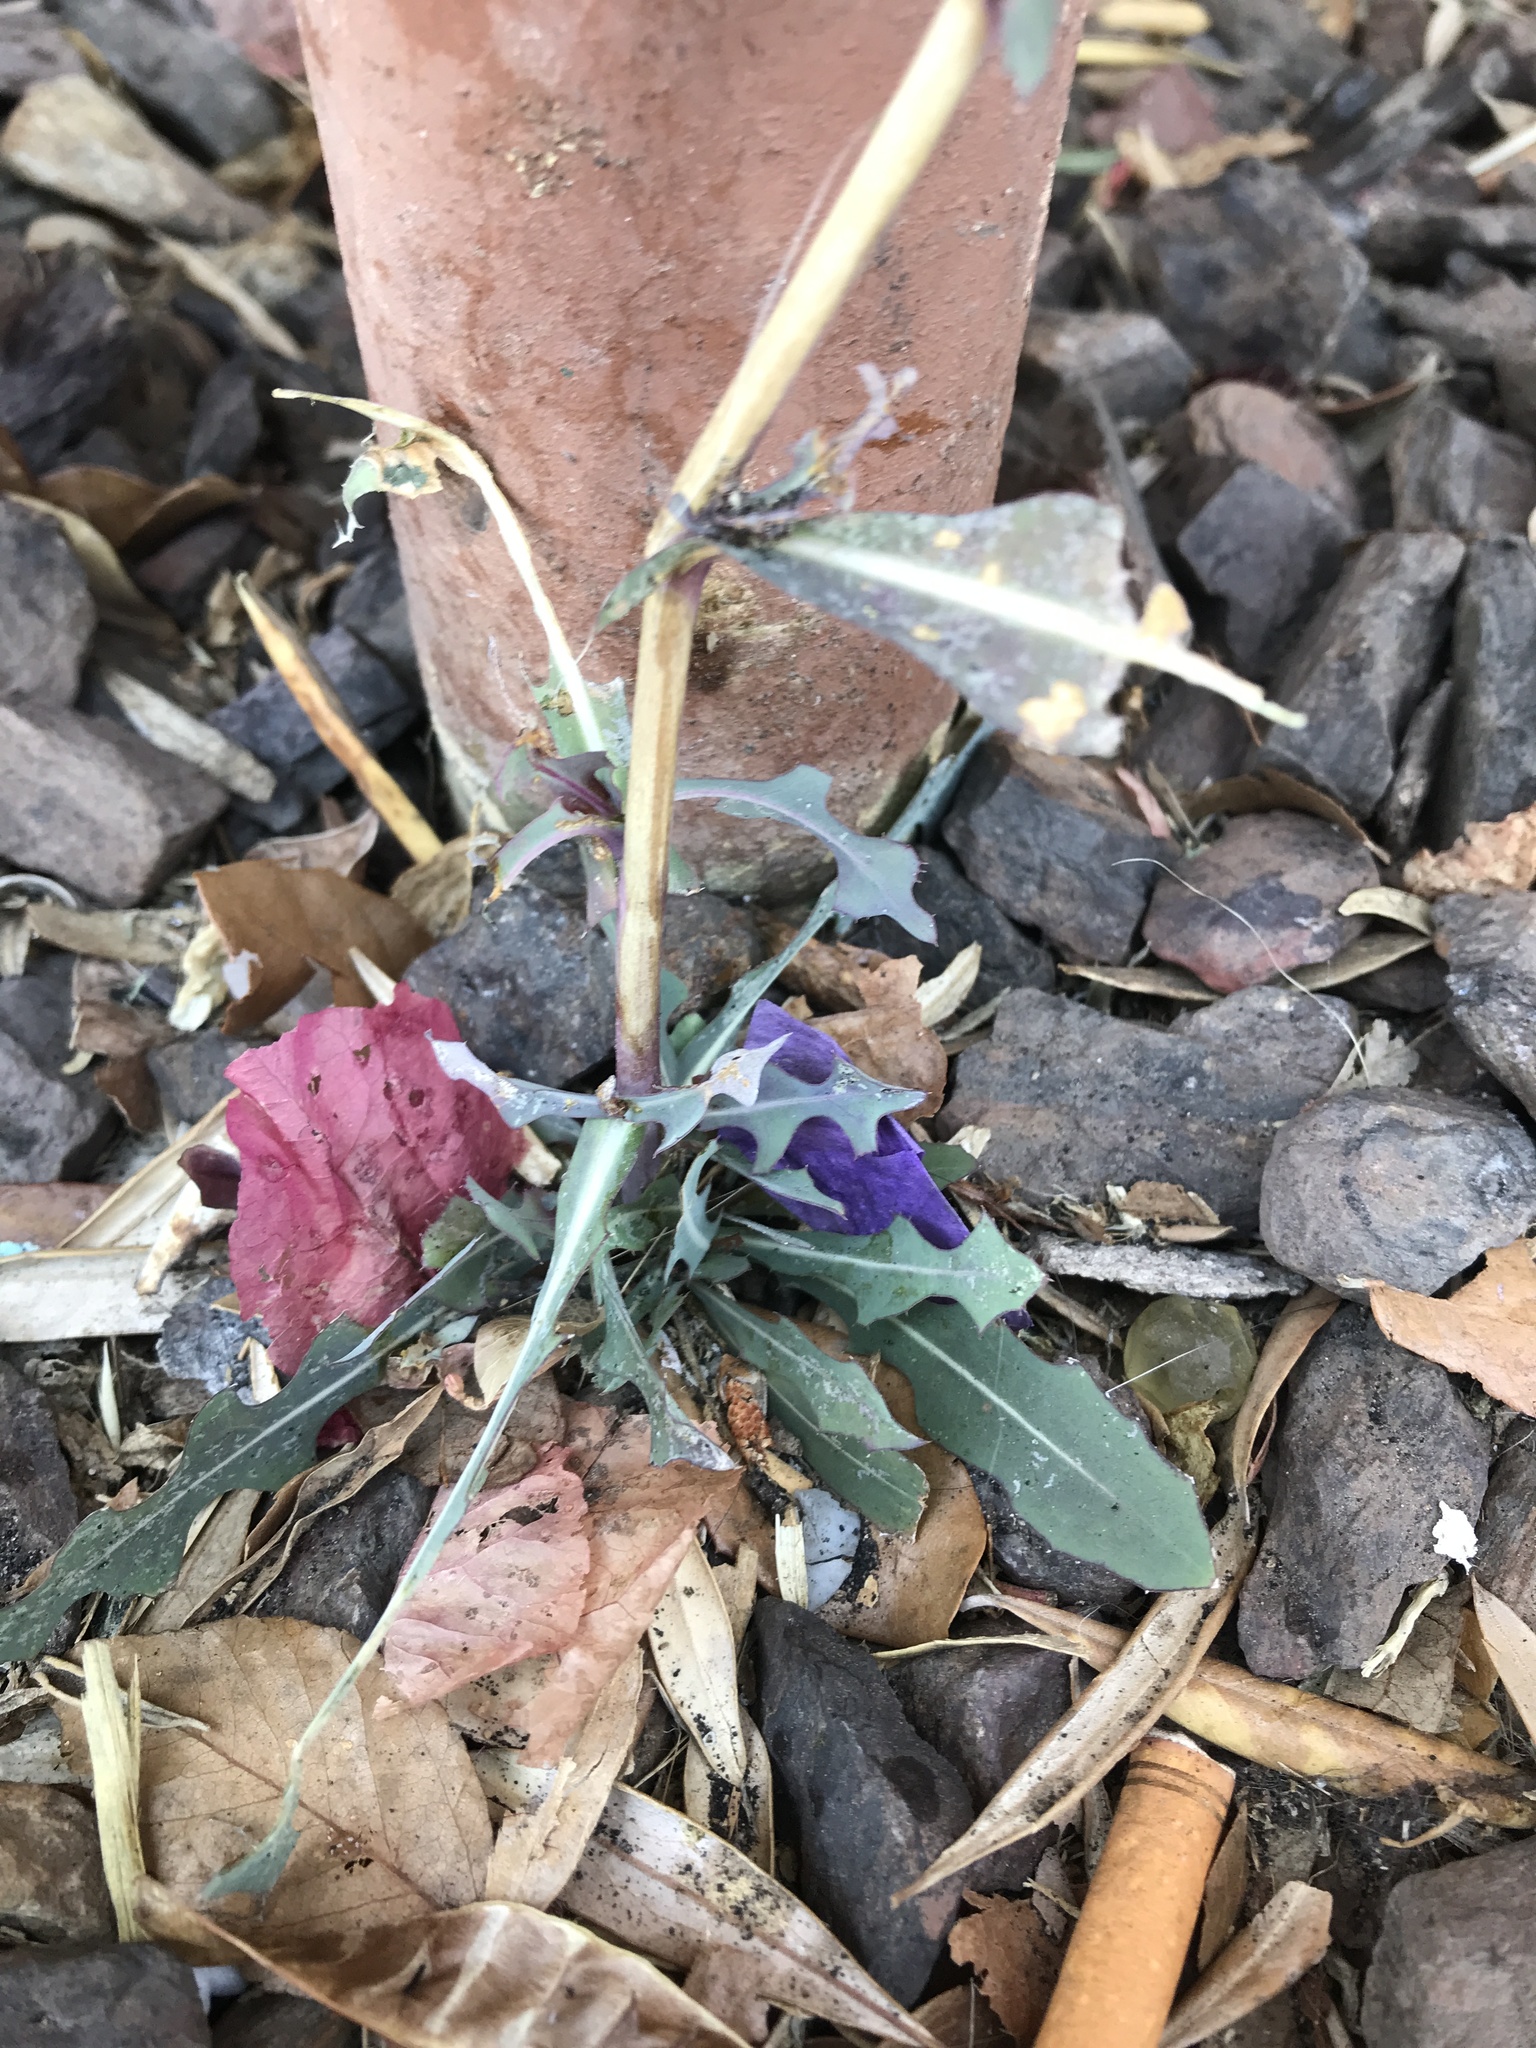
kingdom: Plantae
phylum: Tracheophyta
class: Magnoliopsida
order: Asterales
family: Asteraceae
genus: Lactuca
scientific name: Lactuca serriola
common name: Prickly lettuce
